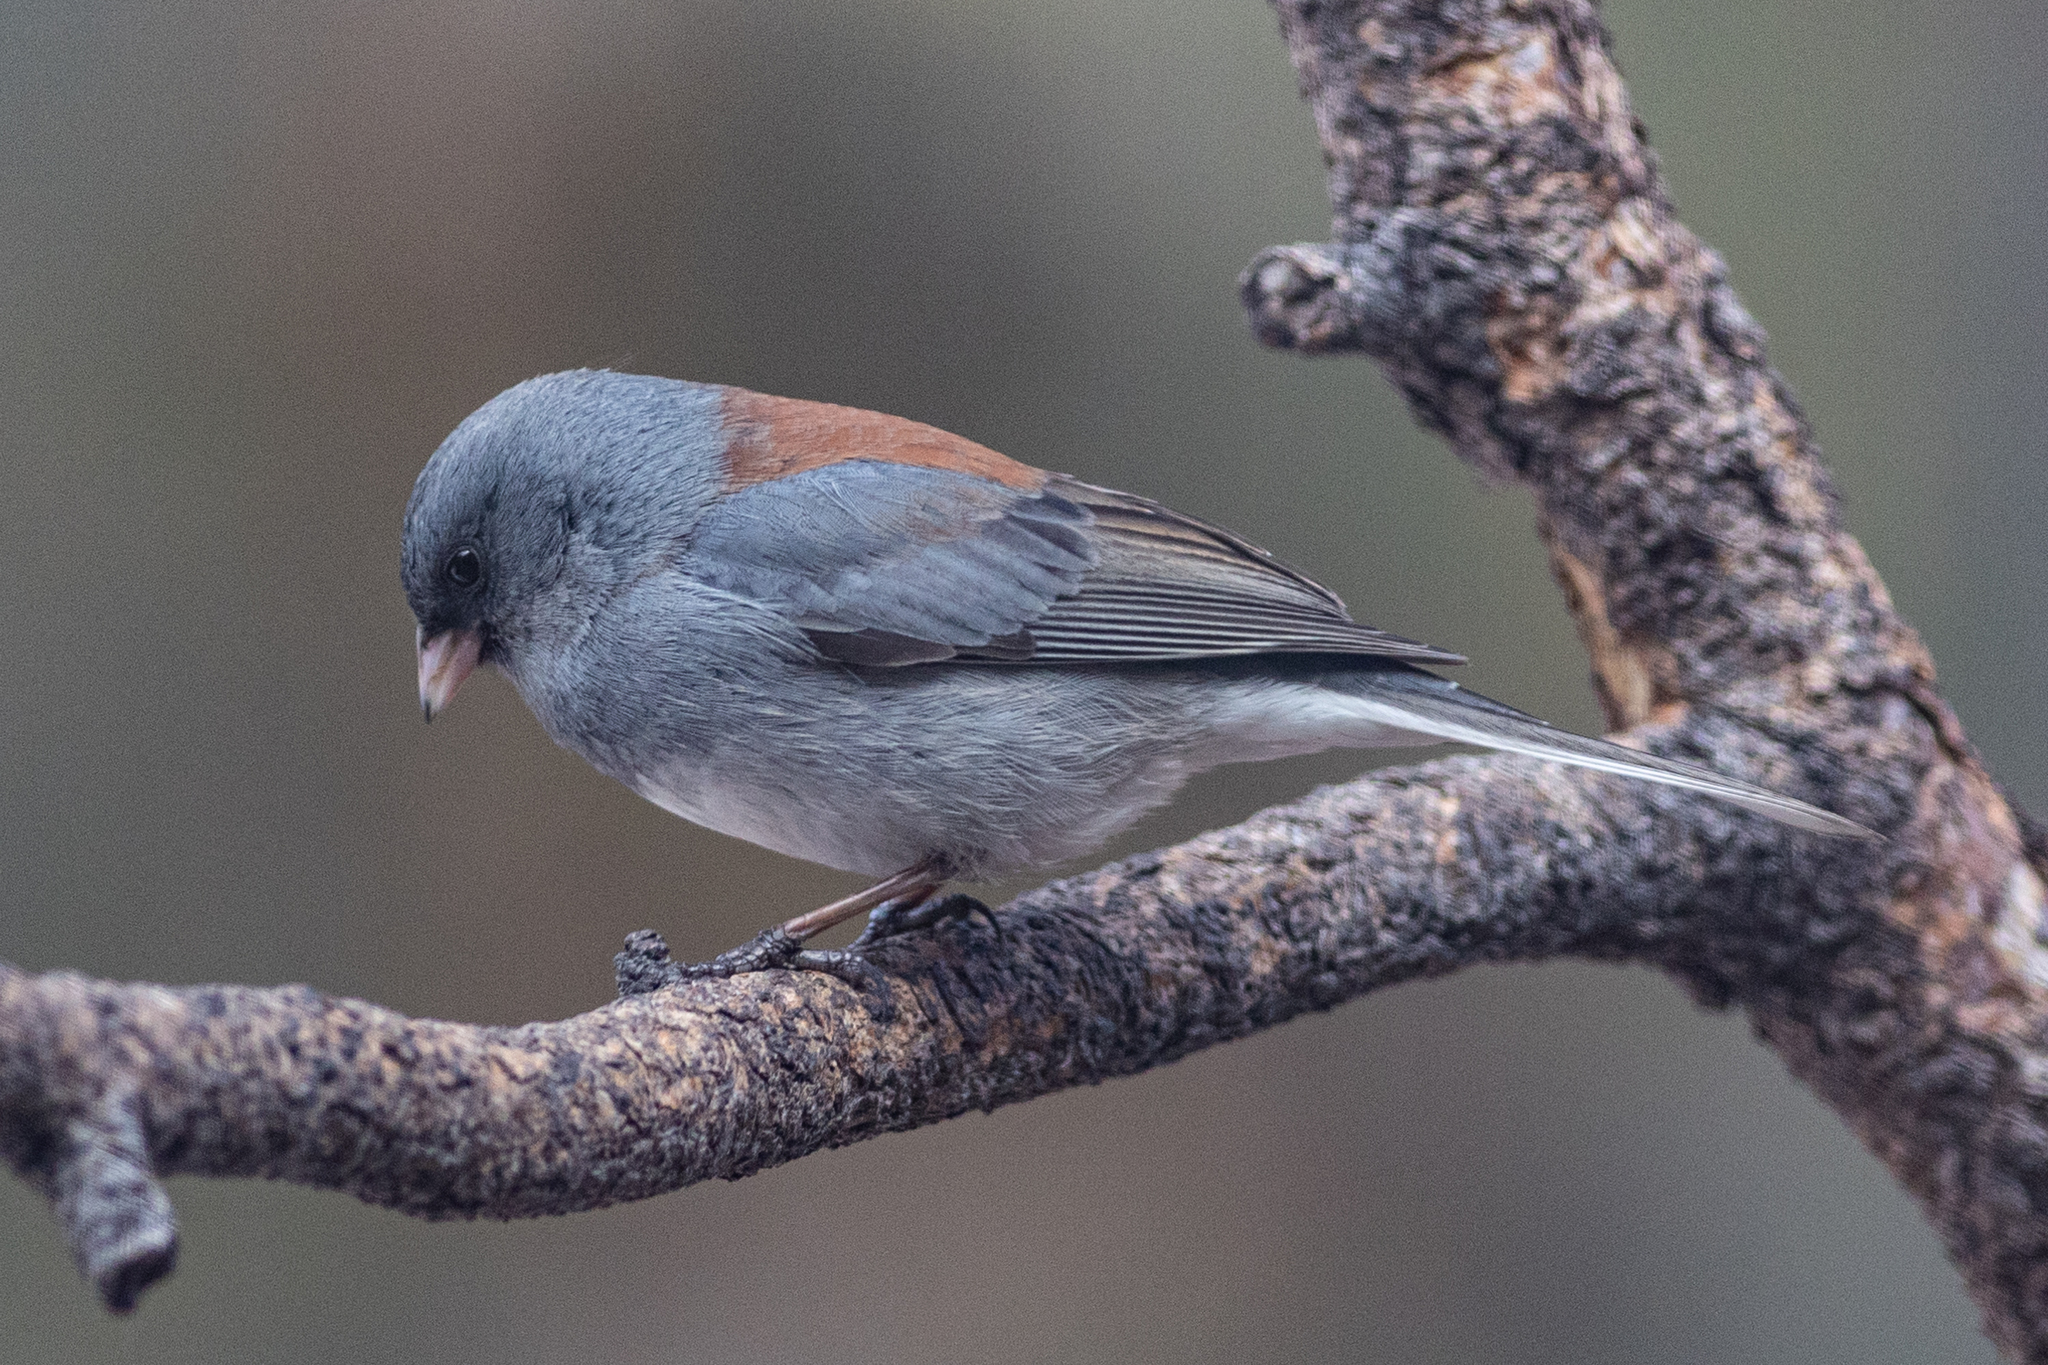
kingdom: Animalia
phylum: Chordata
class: Aves
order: Passeriformes
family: Passerellidae
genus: Junco
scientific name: Junco hyemalis
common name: Dark-eyed junco
